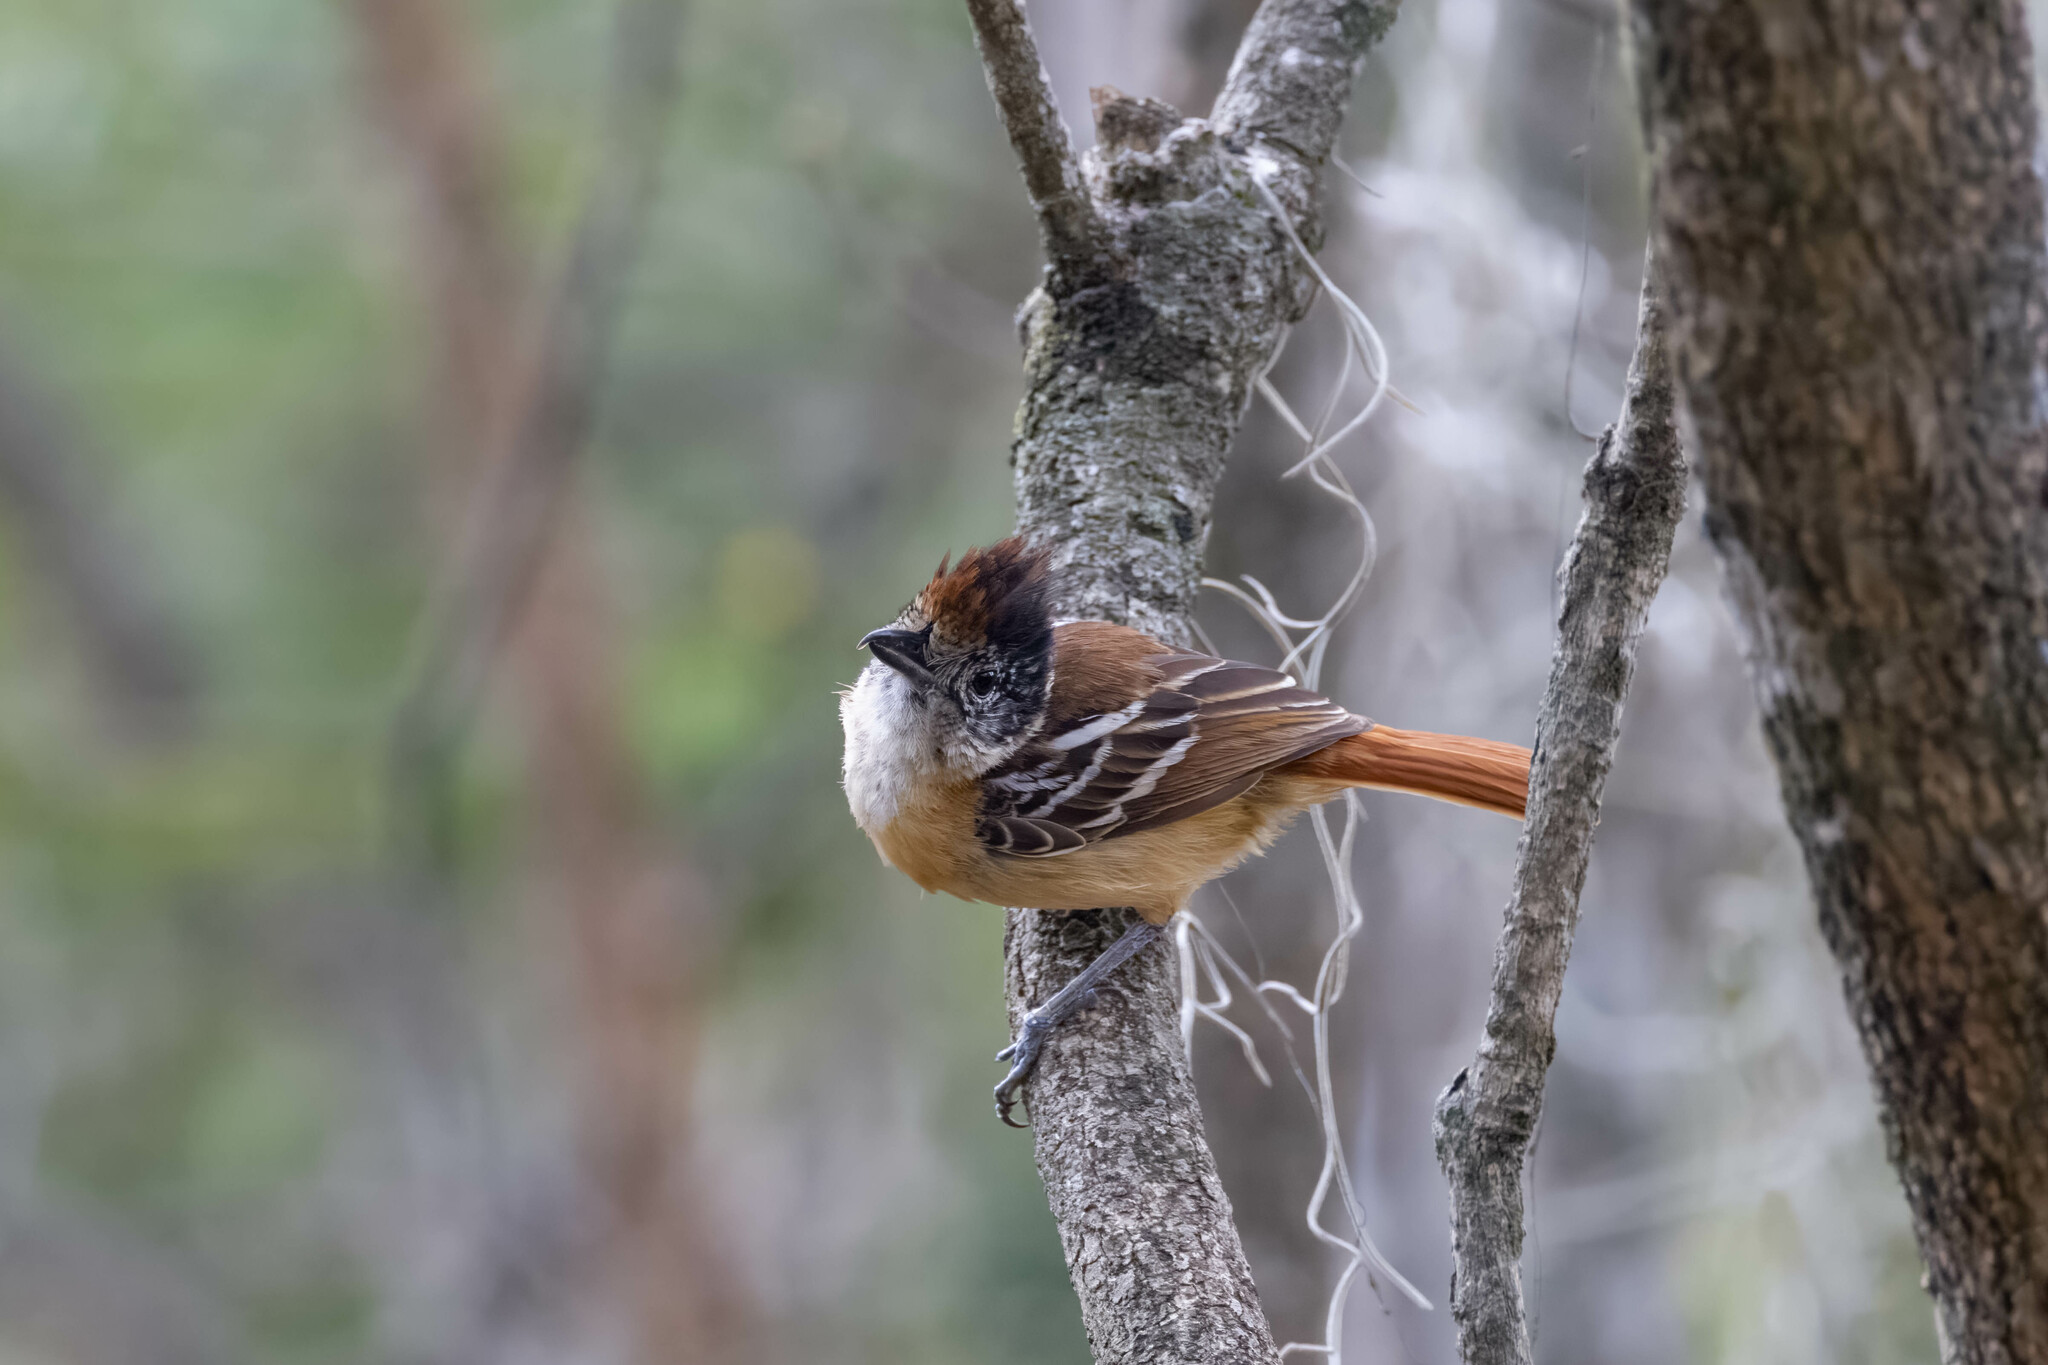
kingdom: Animalia
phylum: Chordata
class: Aves
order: Passeriformes
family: Thamnophilidae
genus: Thamnophilus
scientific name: Thamnophilus bernardi
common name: Collared antshrike
